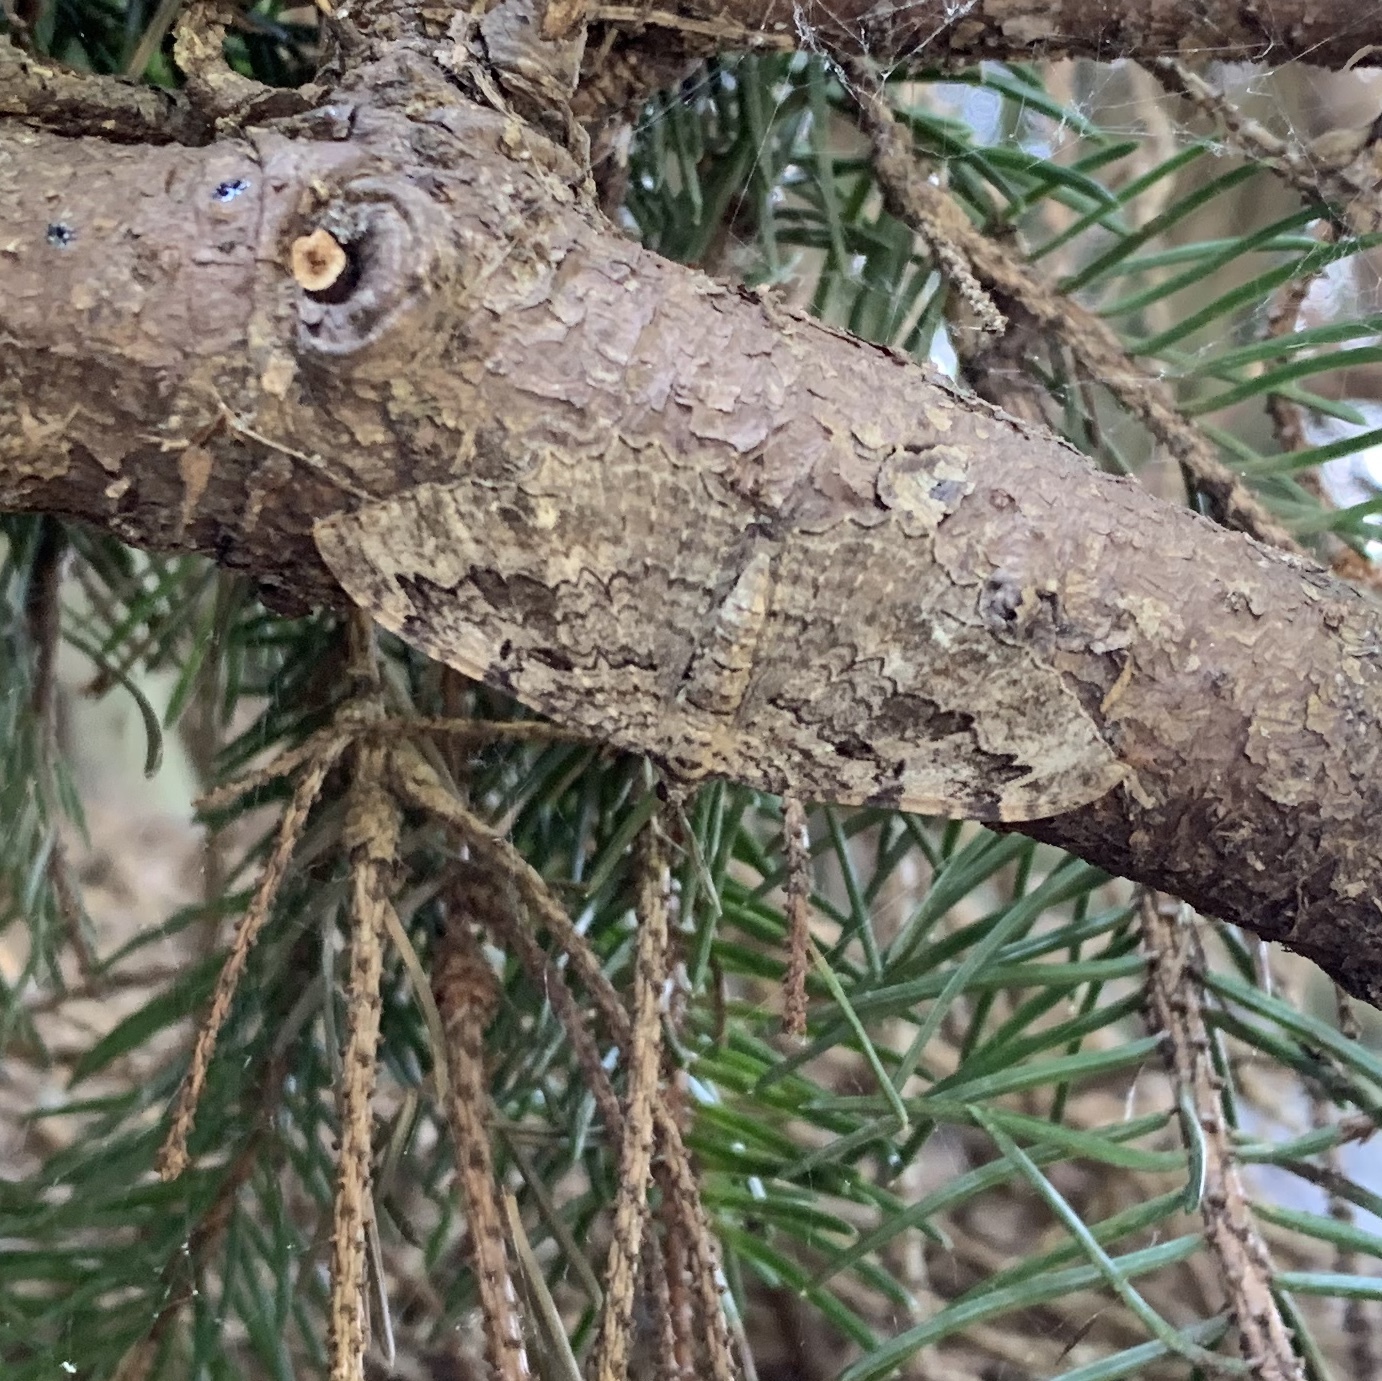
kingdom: Animalia
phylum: Arthropoda
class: Insecta
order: Lepidoptera
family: Geometridae
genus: Rheumaptera
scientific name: Rheumaptera
